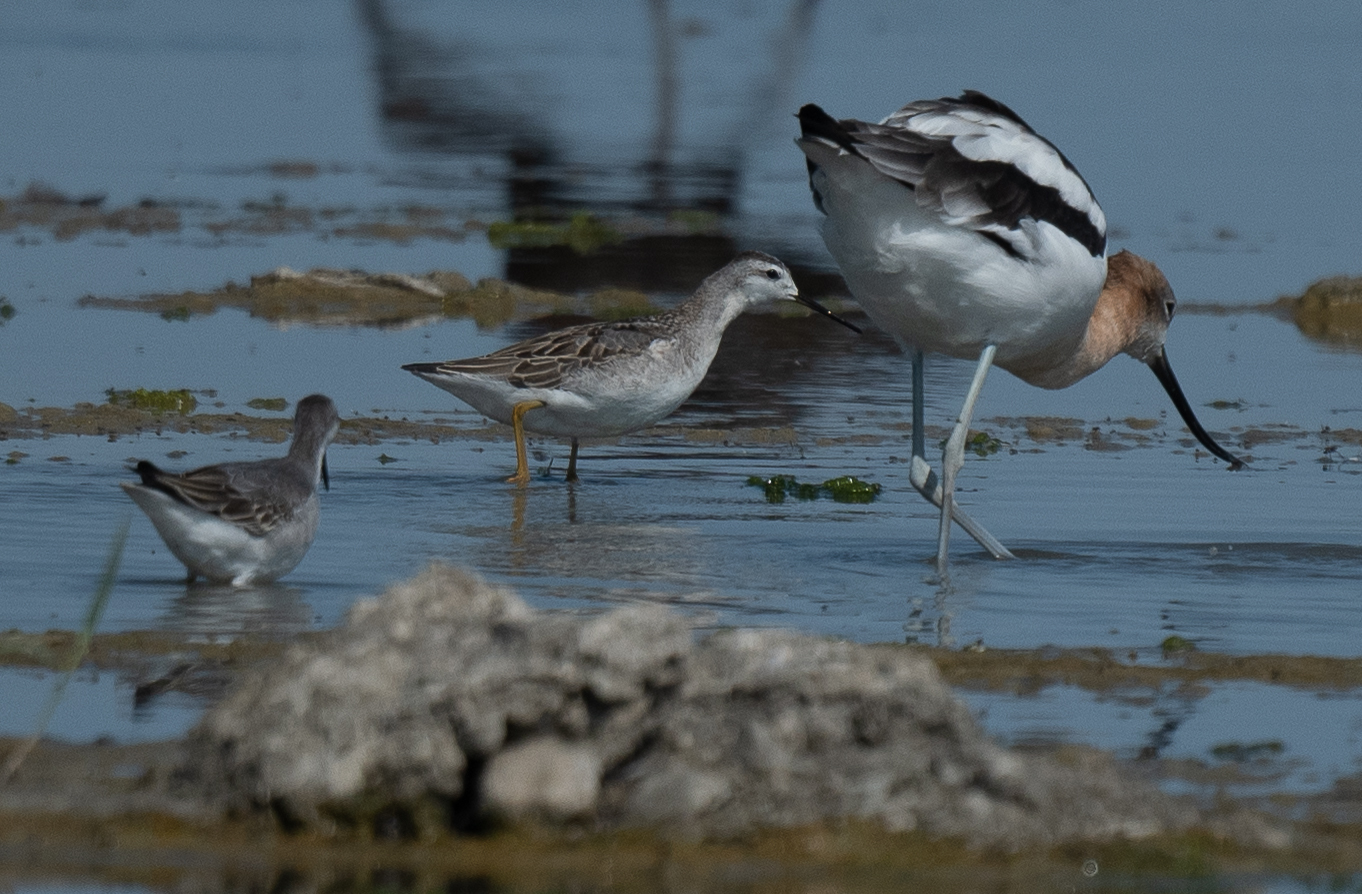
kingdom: Animalia
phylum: Chordata
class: Aves
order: Charadriiformes
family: Scolopacidae
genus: Phalaropus
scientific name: Phalaropus tricolor
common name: Wilson's phalarope
